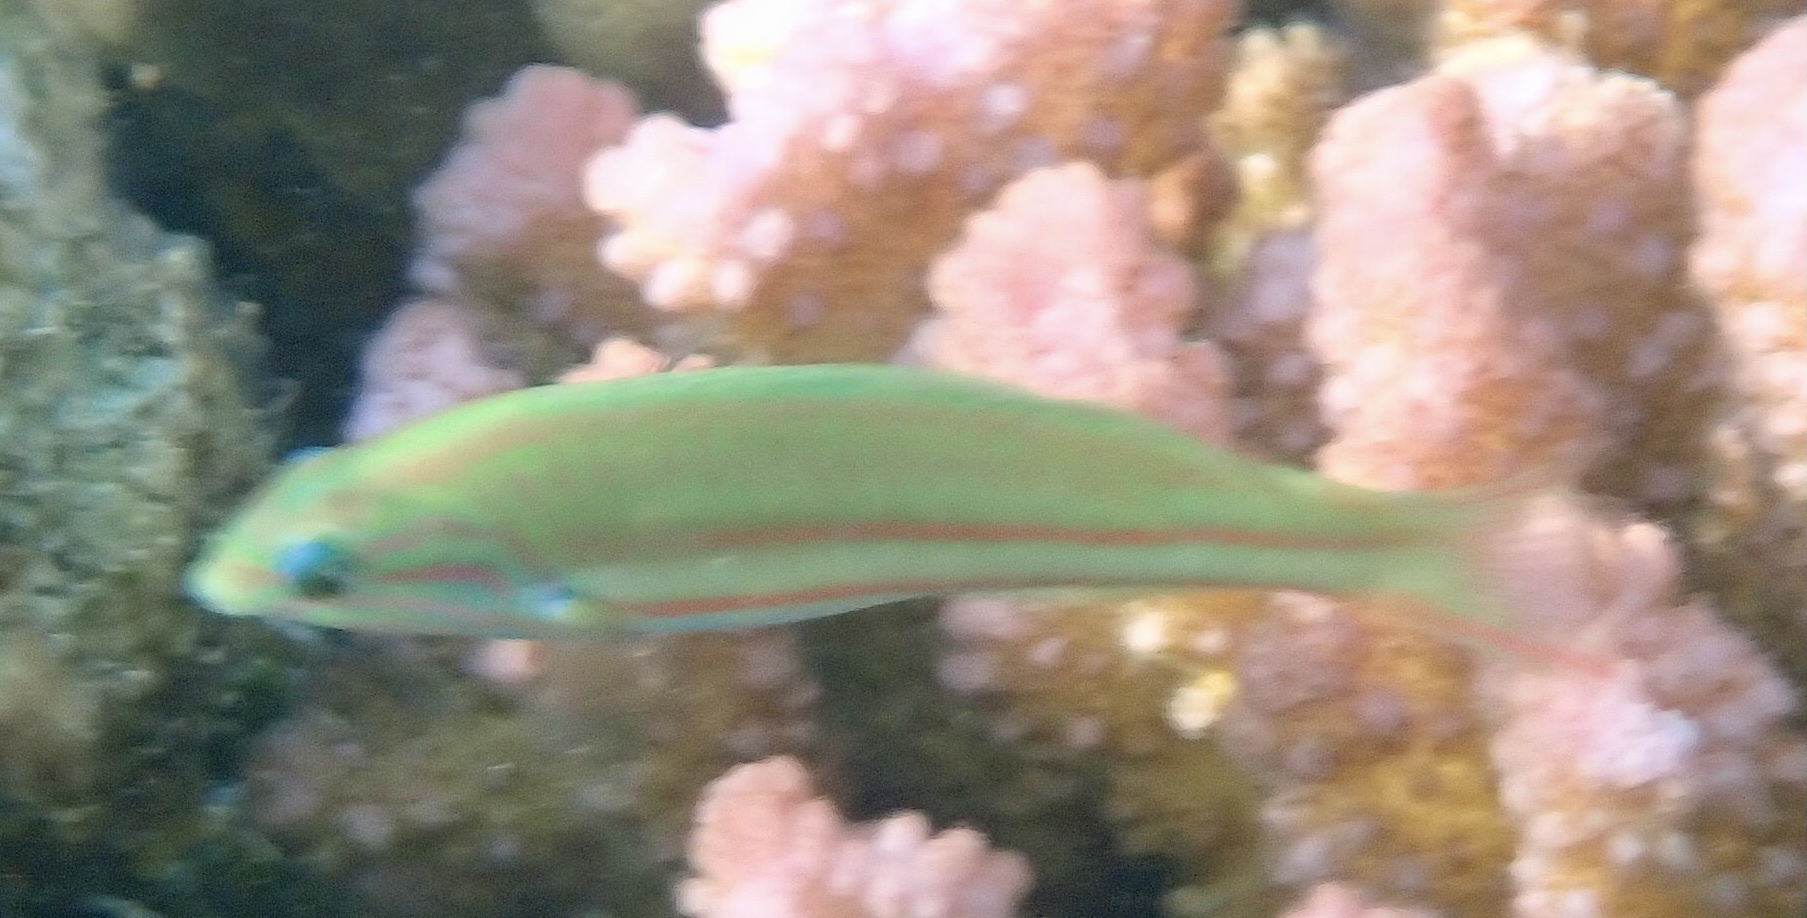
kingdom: Animalia
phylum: Chordata
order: Perciformes
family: Labridae
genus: Thalassoma
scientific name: Thalassoma rueppellii
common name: Klunzinger's wrasse
